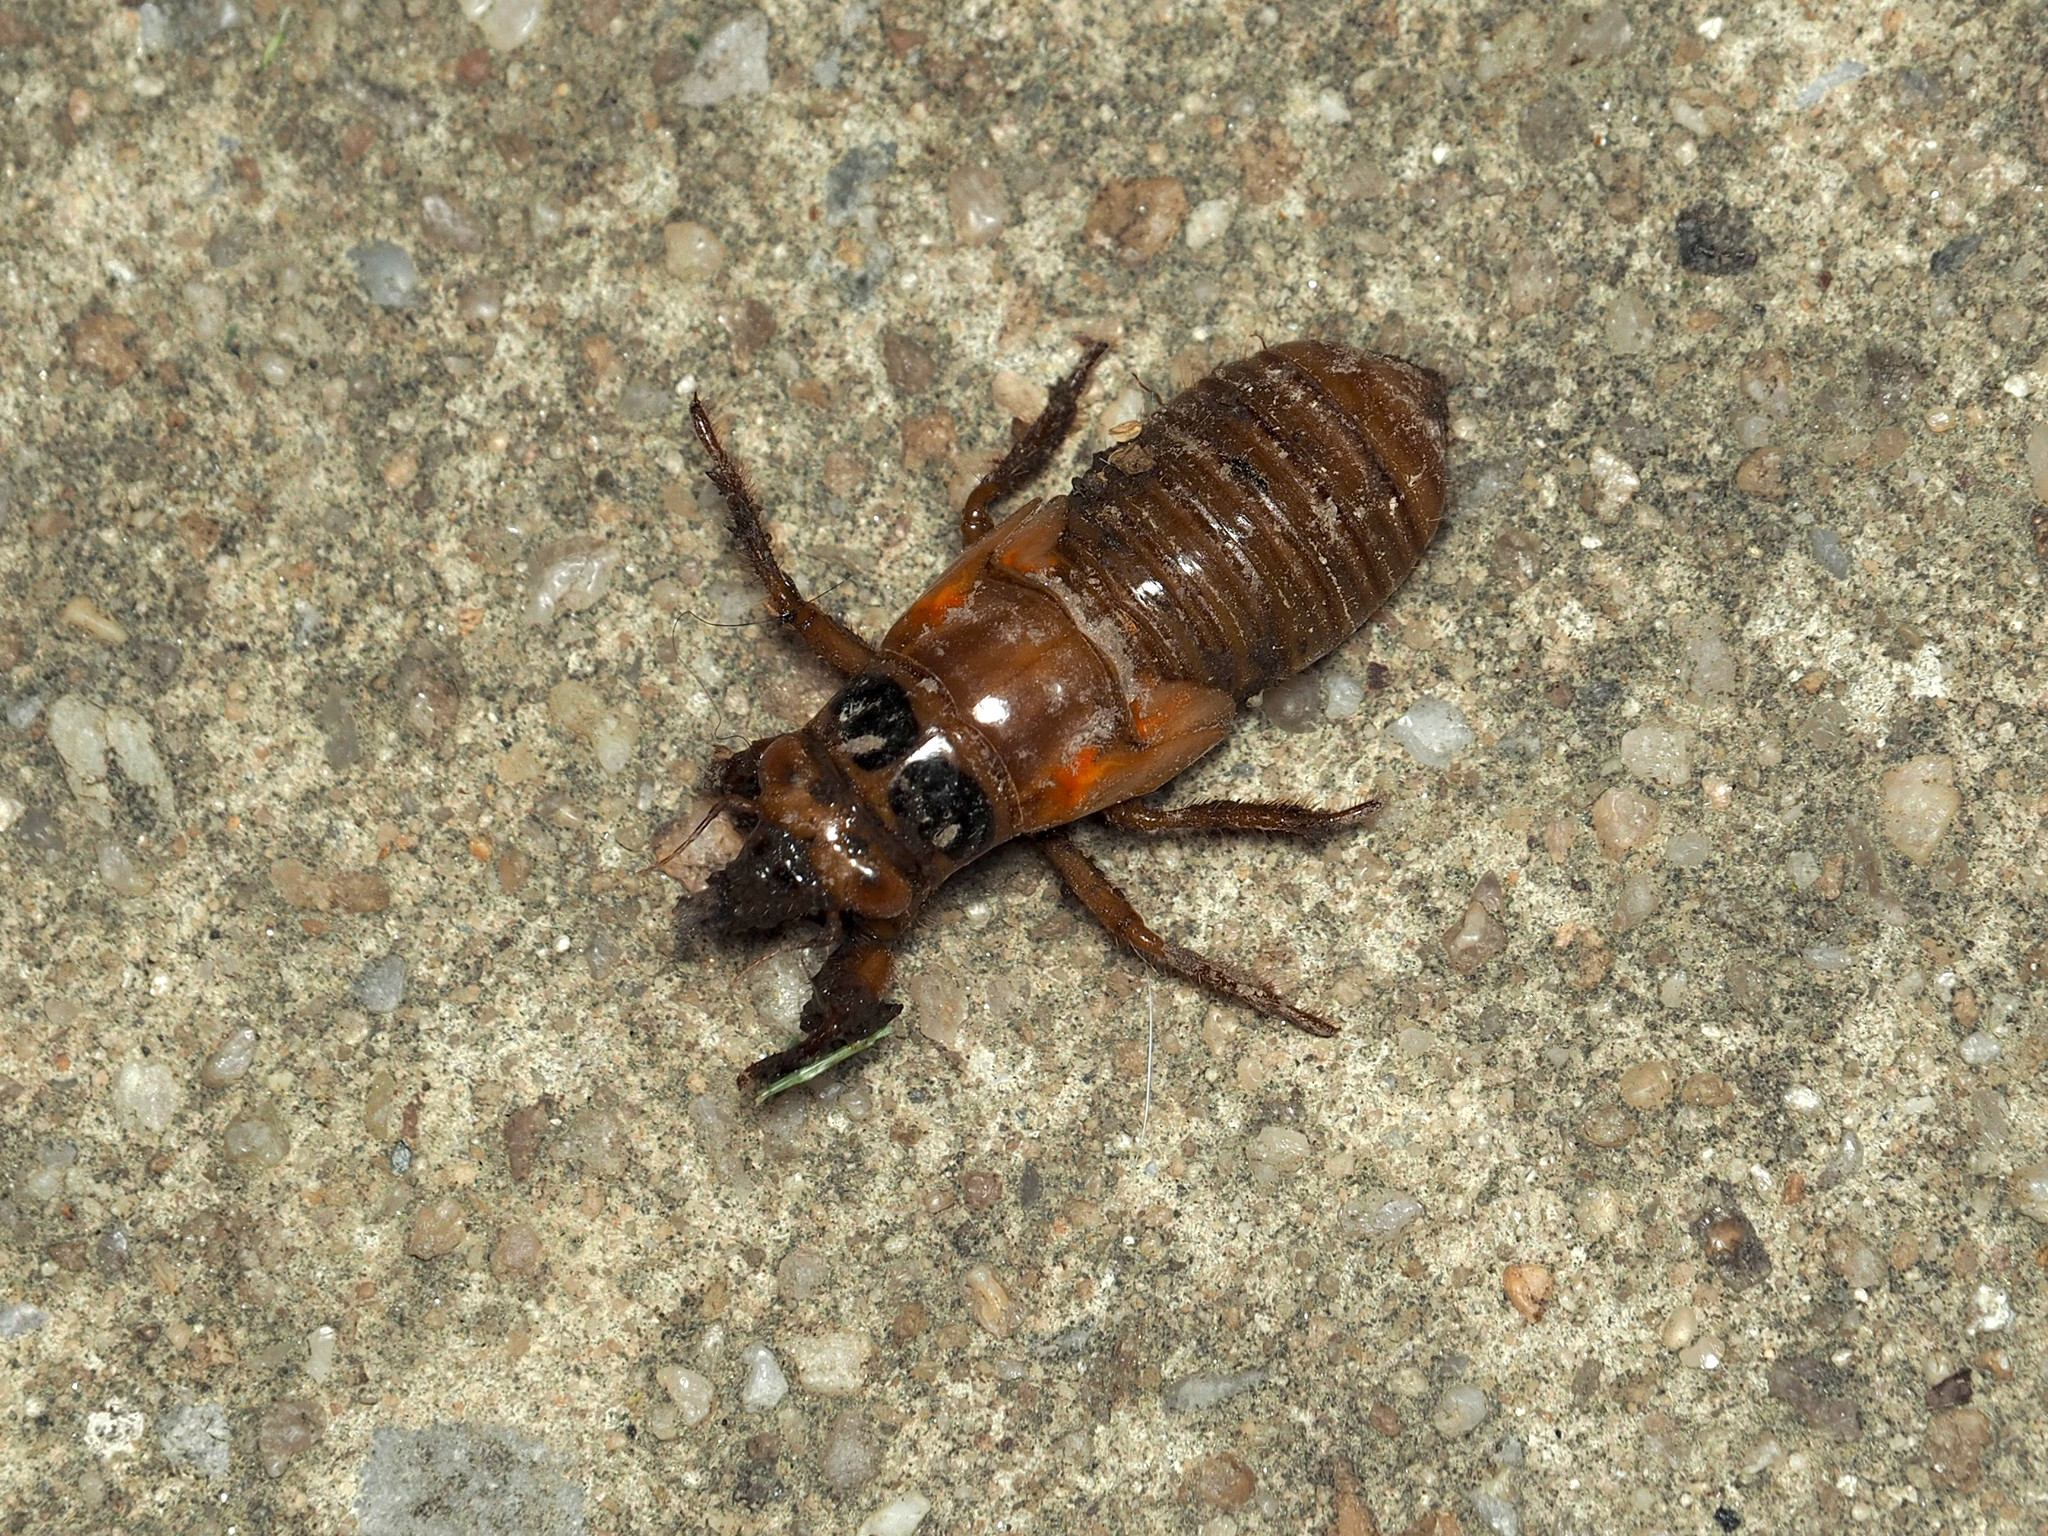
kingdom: Animalia
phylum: Arthropoda
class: Insecta
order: Hemiptera
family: Cicadidae
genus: Magicicada
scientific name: Magicicada
